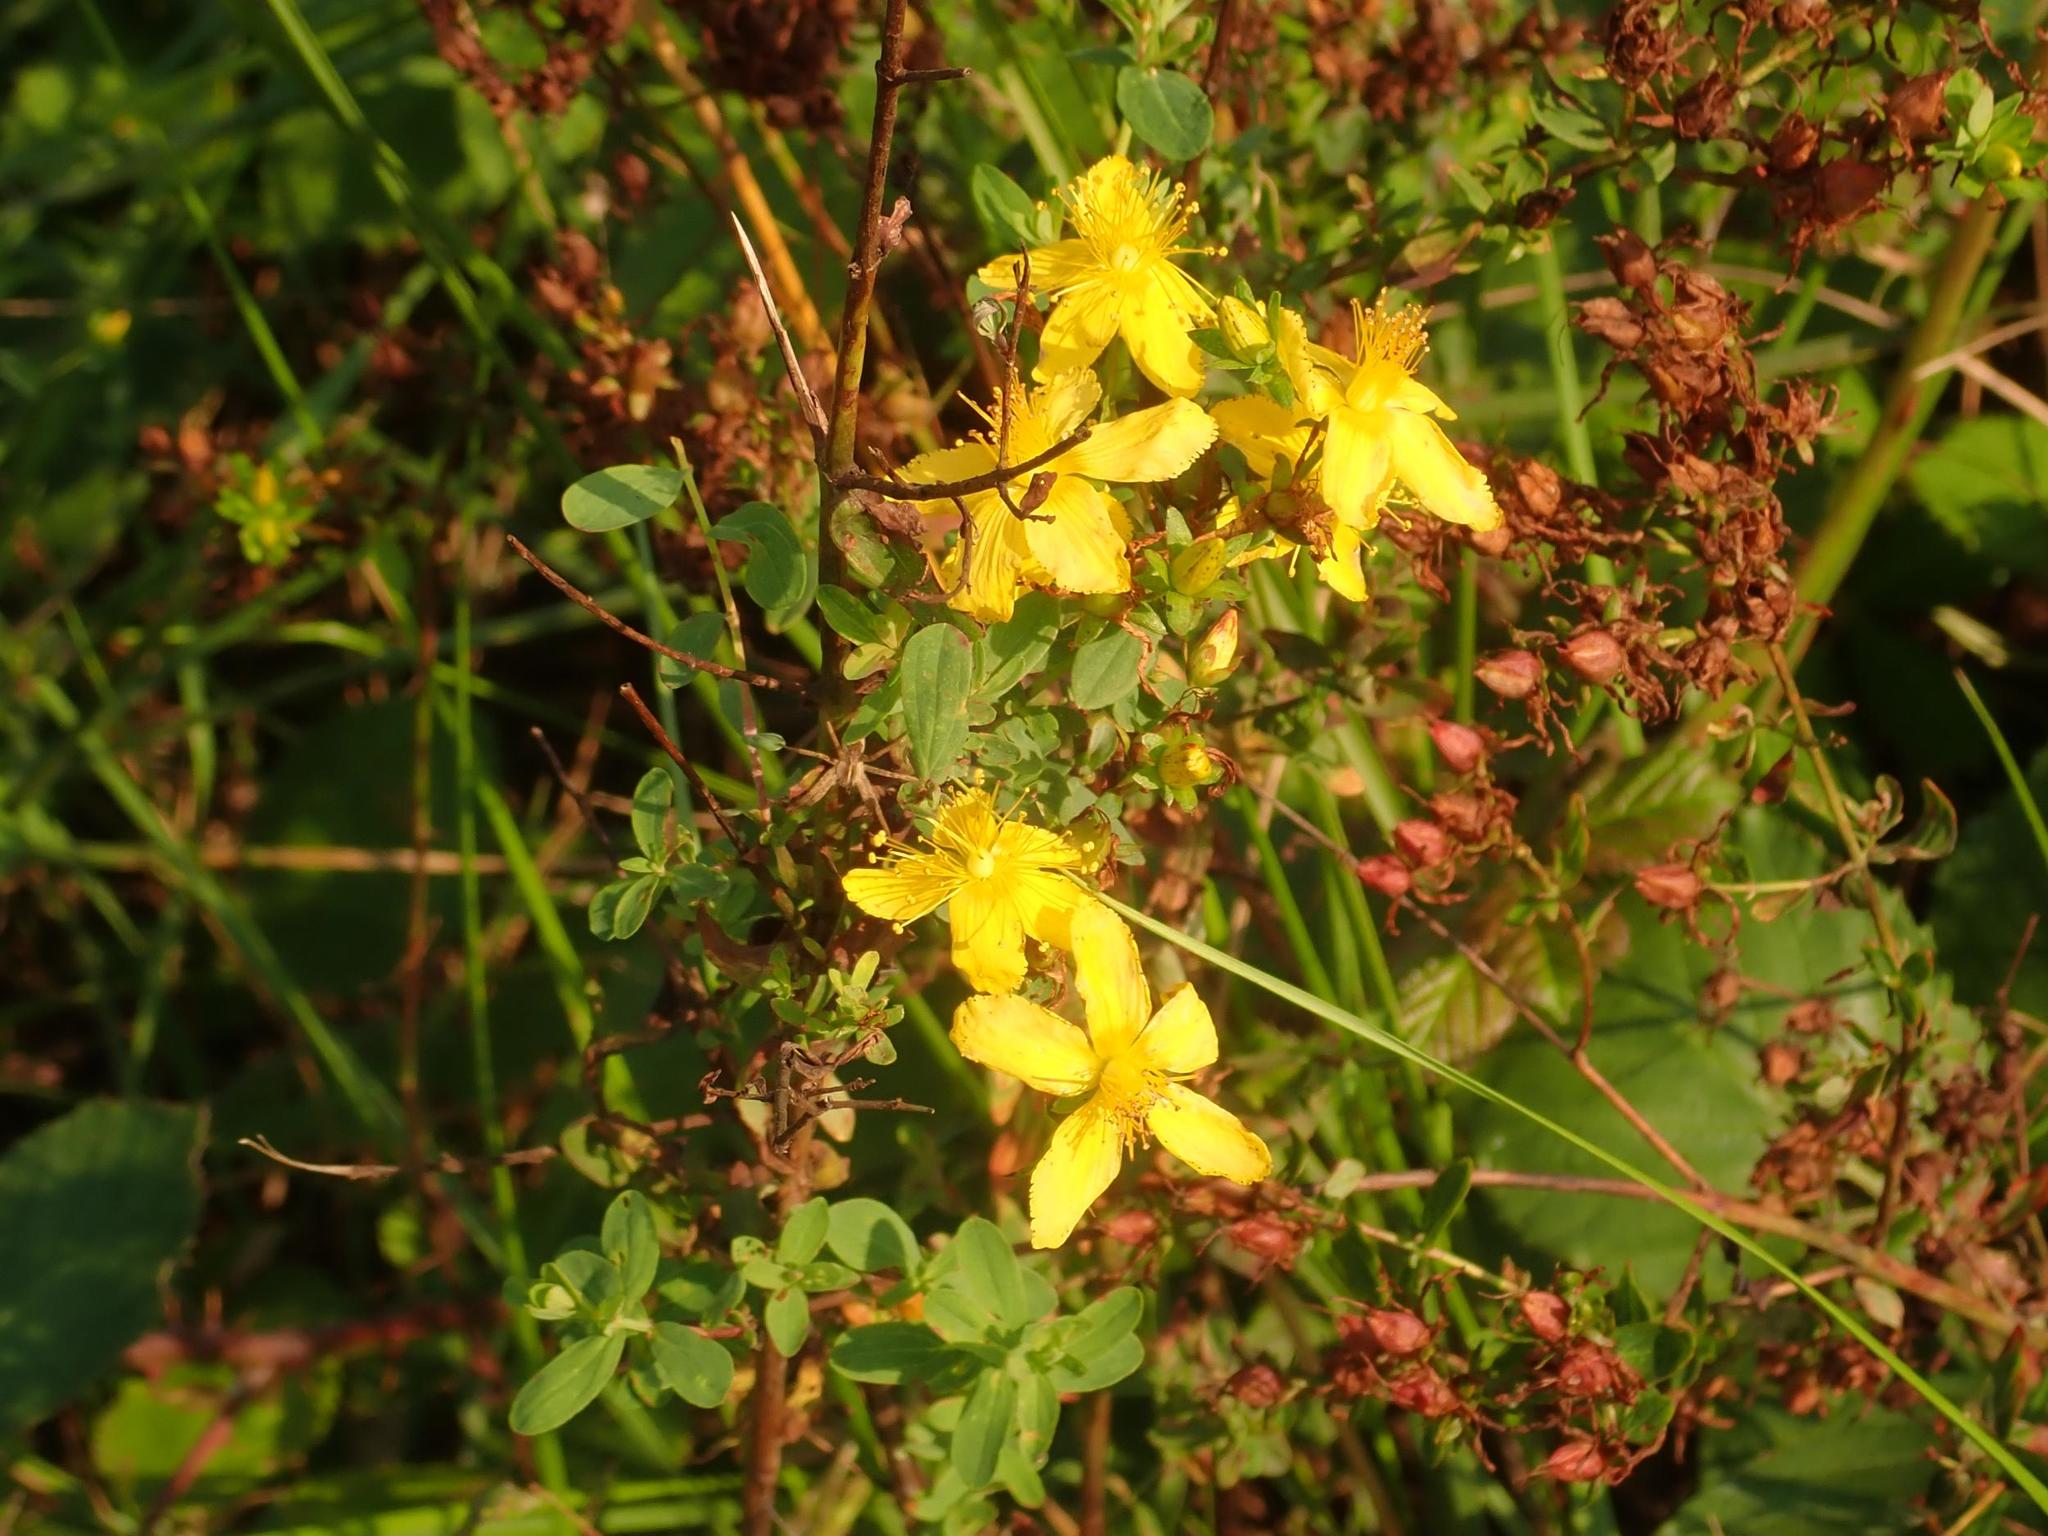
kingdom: Plantae
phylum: Tracheophyta
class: Magnoliopsida
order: Malpighiales
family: Hypericaceae
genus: Hypericum
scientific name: Hypericum perforatum
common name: Common st. johnswort
